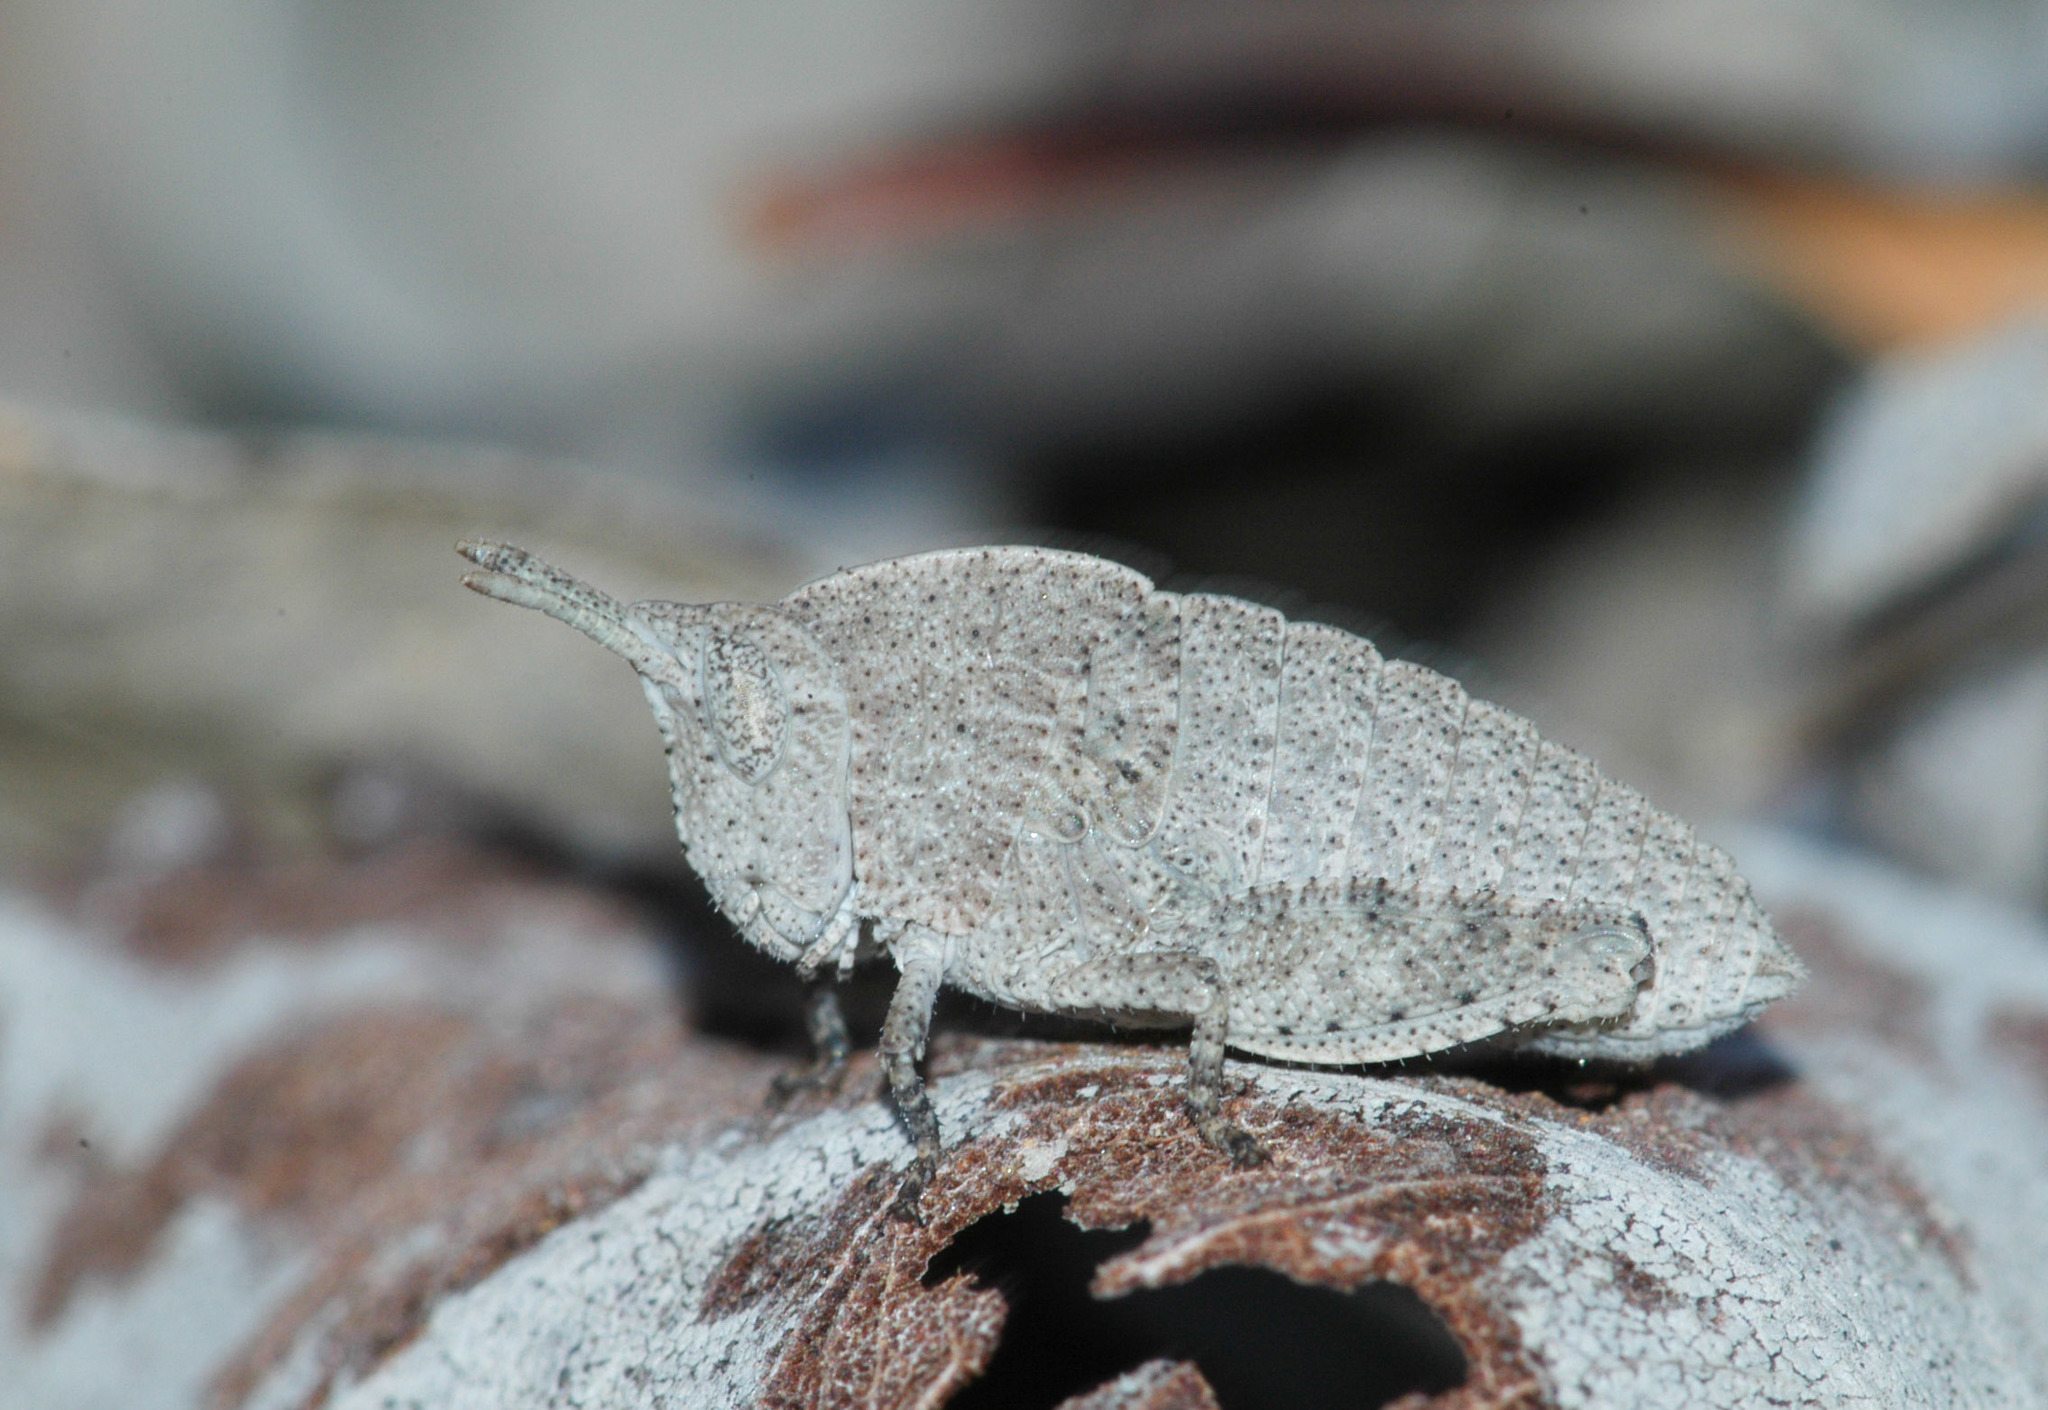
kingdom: Animalia
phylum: Arthropoda
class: Insecta
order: Orthoptera
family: Acrididae
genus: Goniaea
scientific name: Goniaea australasiae
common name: Gumleaf grasshopper
